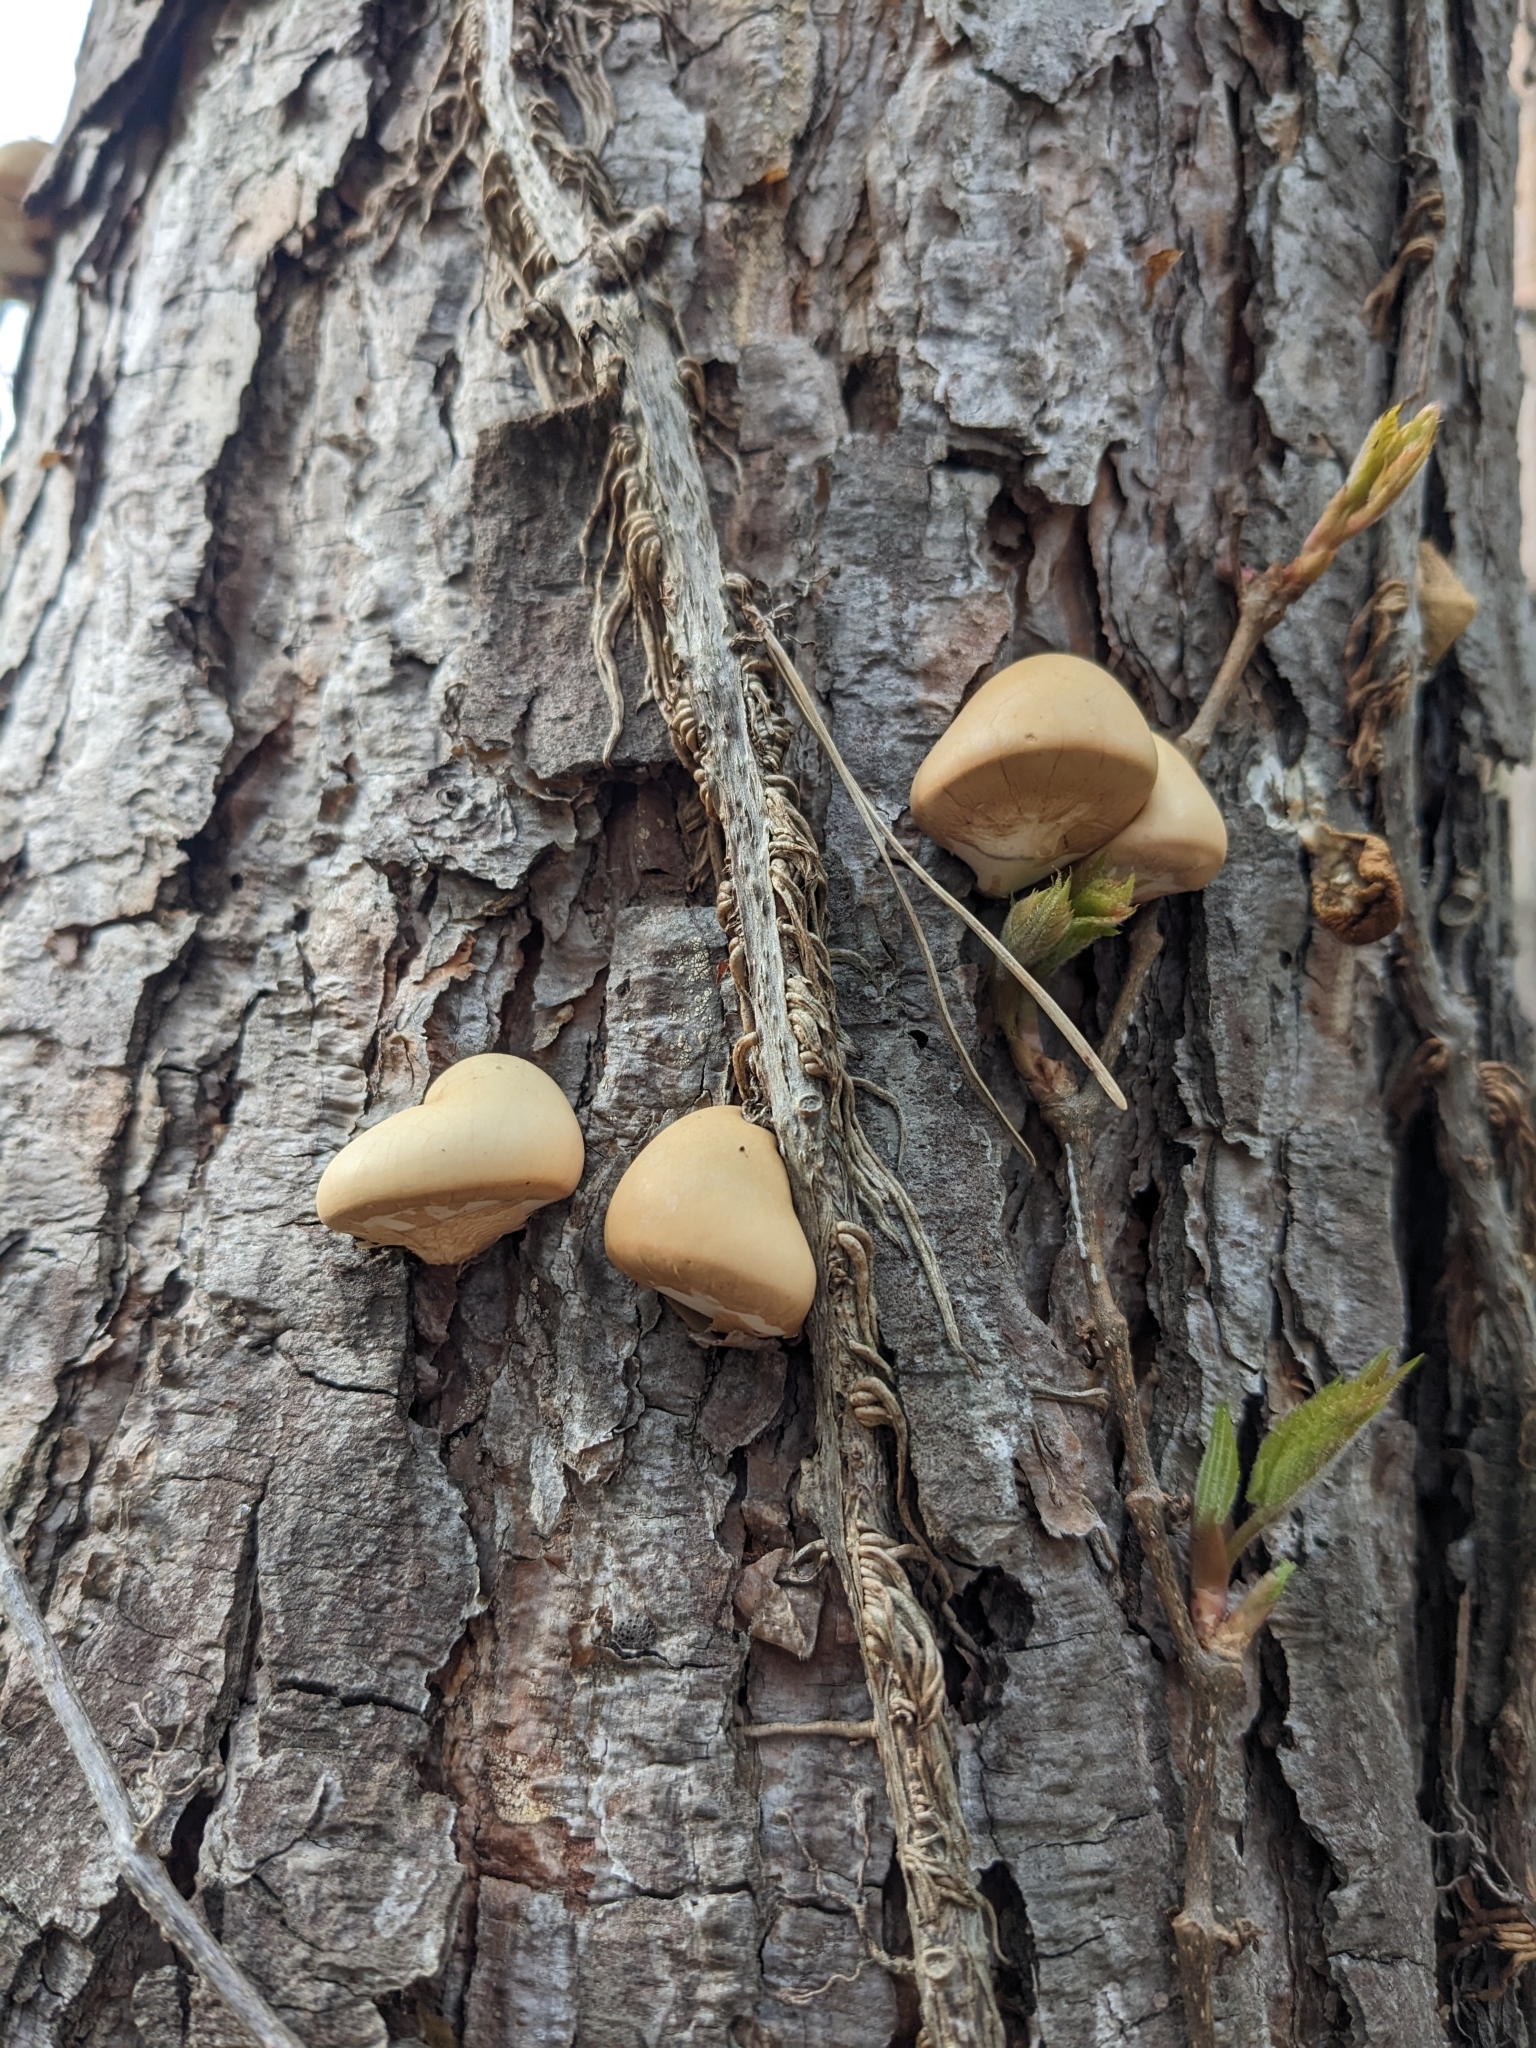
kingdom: Fungi
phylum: Basidiomycota
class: Agaricomycetes
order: Polyporales
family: Polyporaceae
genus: Cryptoporus
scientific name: Cryptoporus volvatus
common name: Veiled polypore
